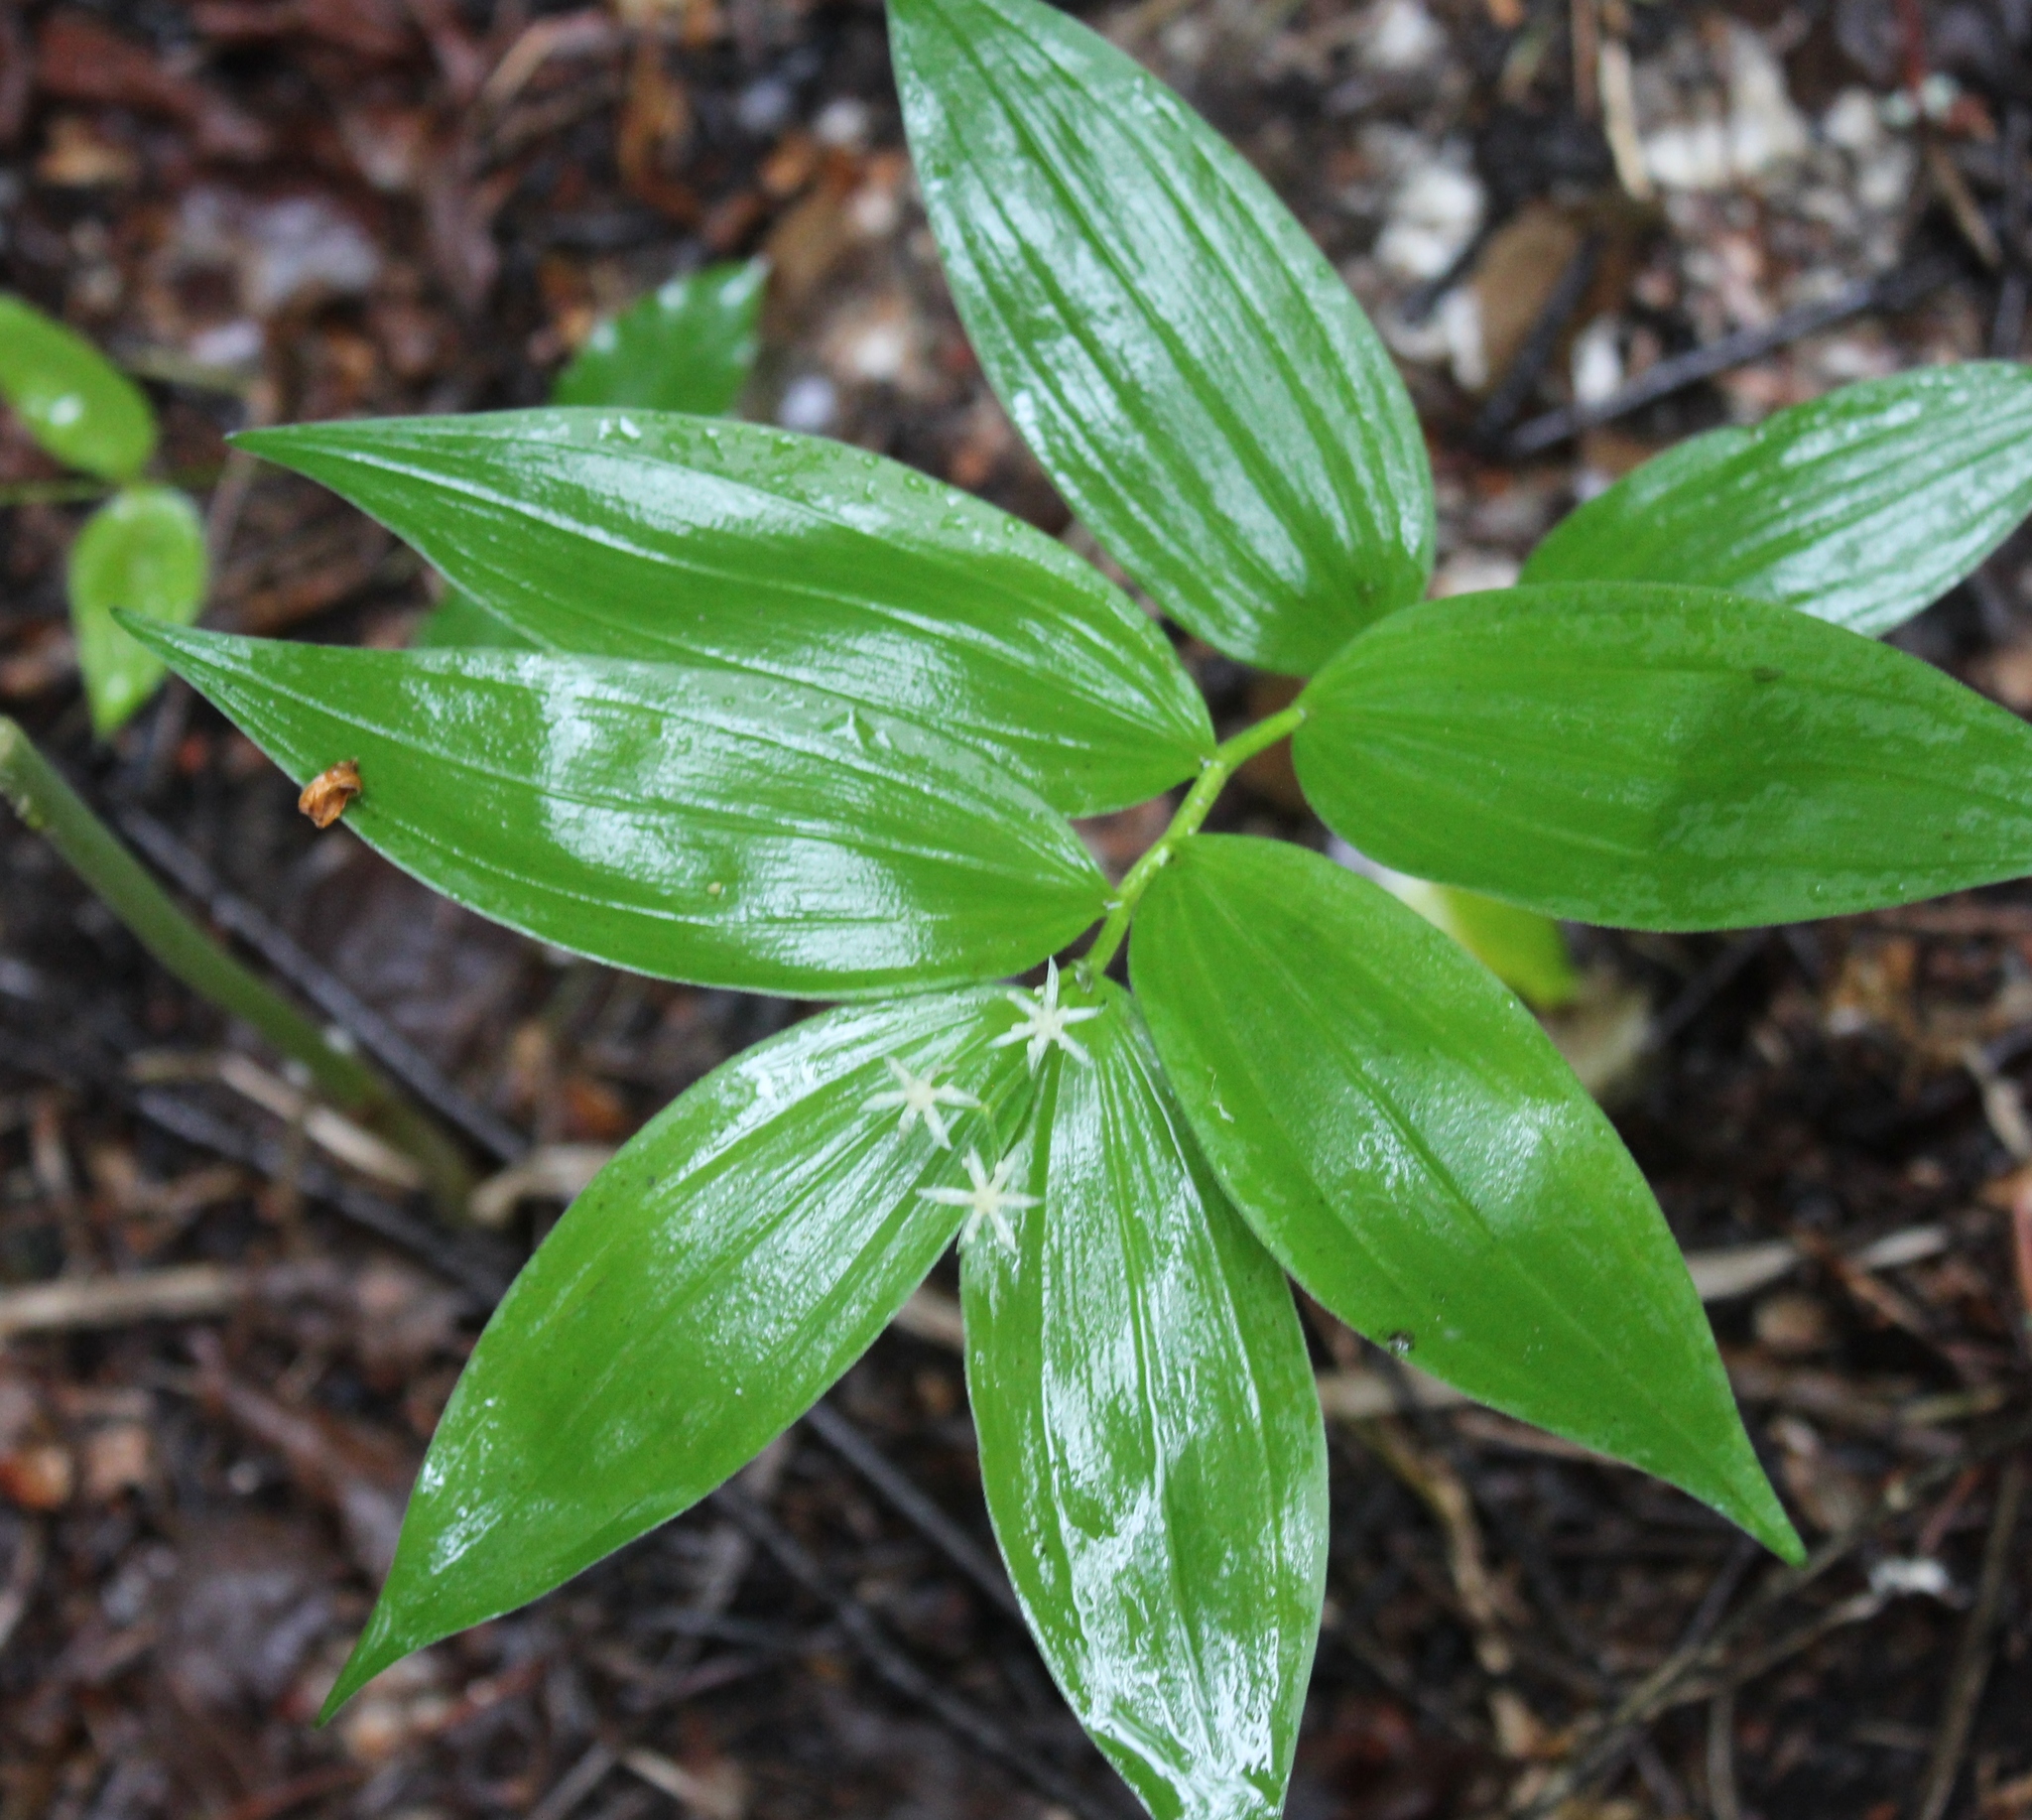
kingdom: Plantae
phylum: Tracheophyta
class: Liliopsida
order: Asparagales
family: Asparagaceae
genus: Maianthemum
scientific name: Maianthemum stellatum
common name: Little false solomon's seal
